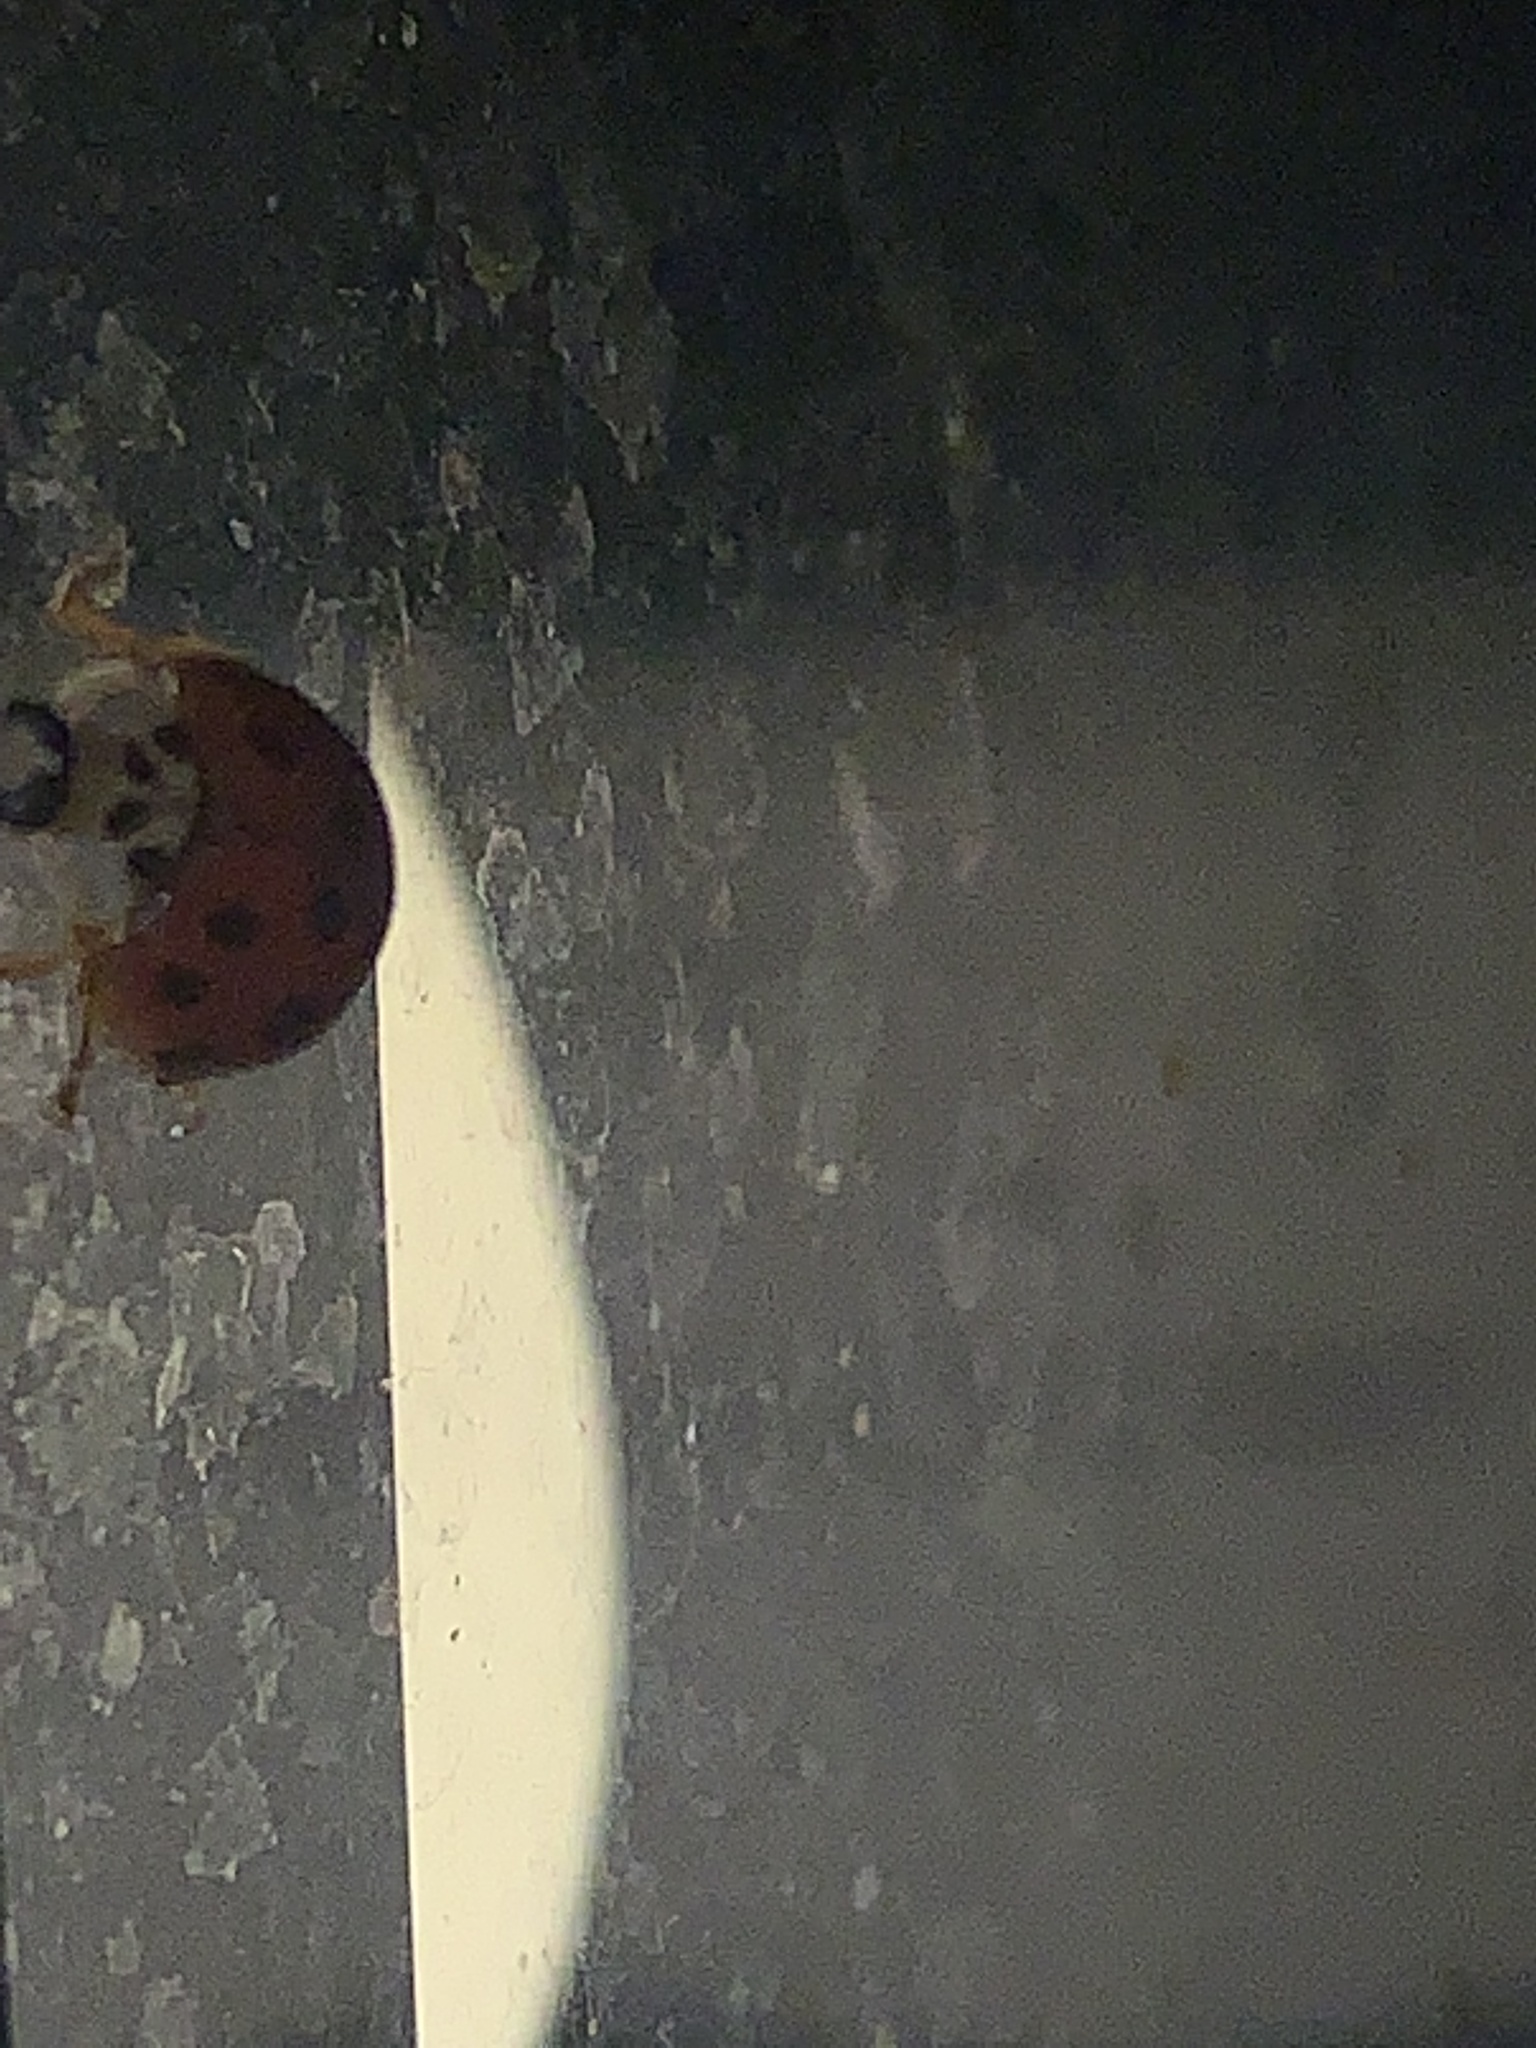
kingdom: Animalia
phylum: Arthropoda
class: Insecta
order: Coleoptera
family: Coccinellidae
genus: Harmonia
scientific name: Harmonia axyridis
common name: Harlequin ladybird
